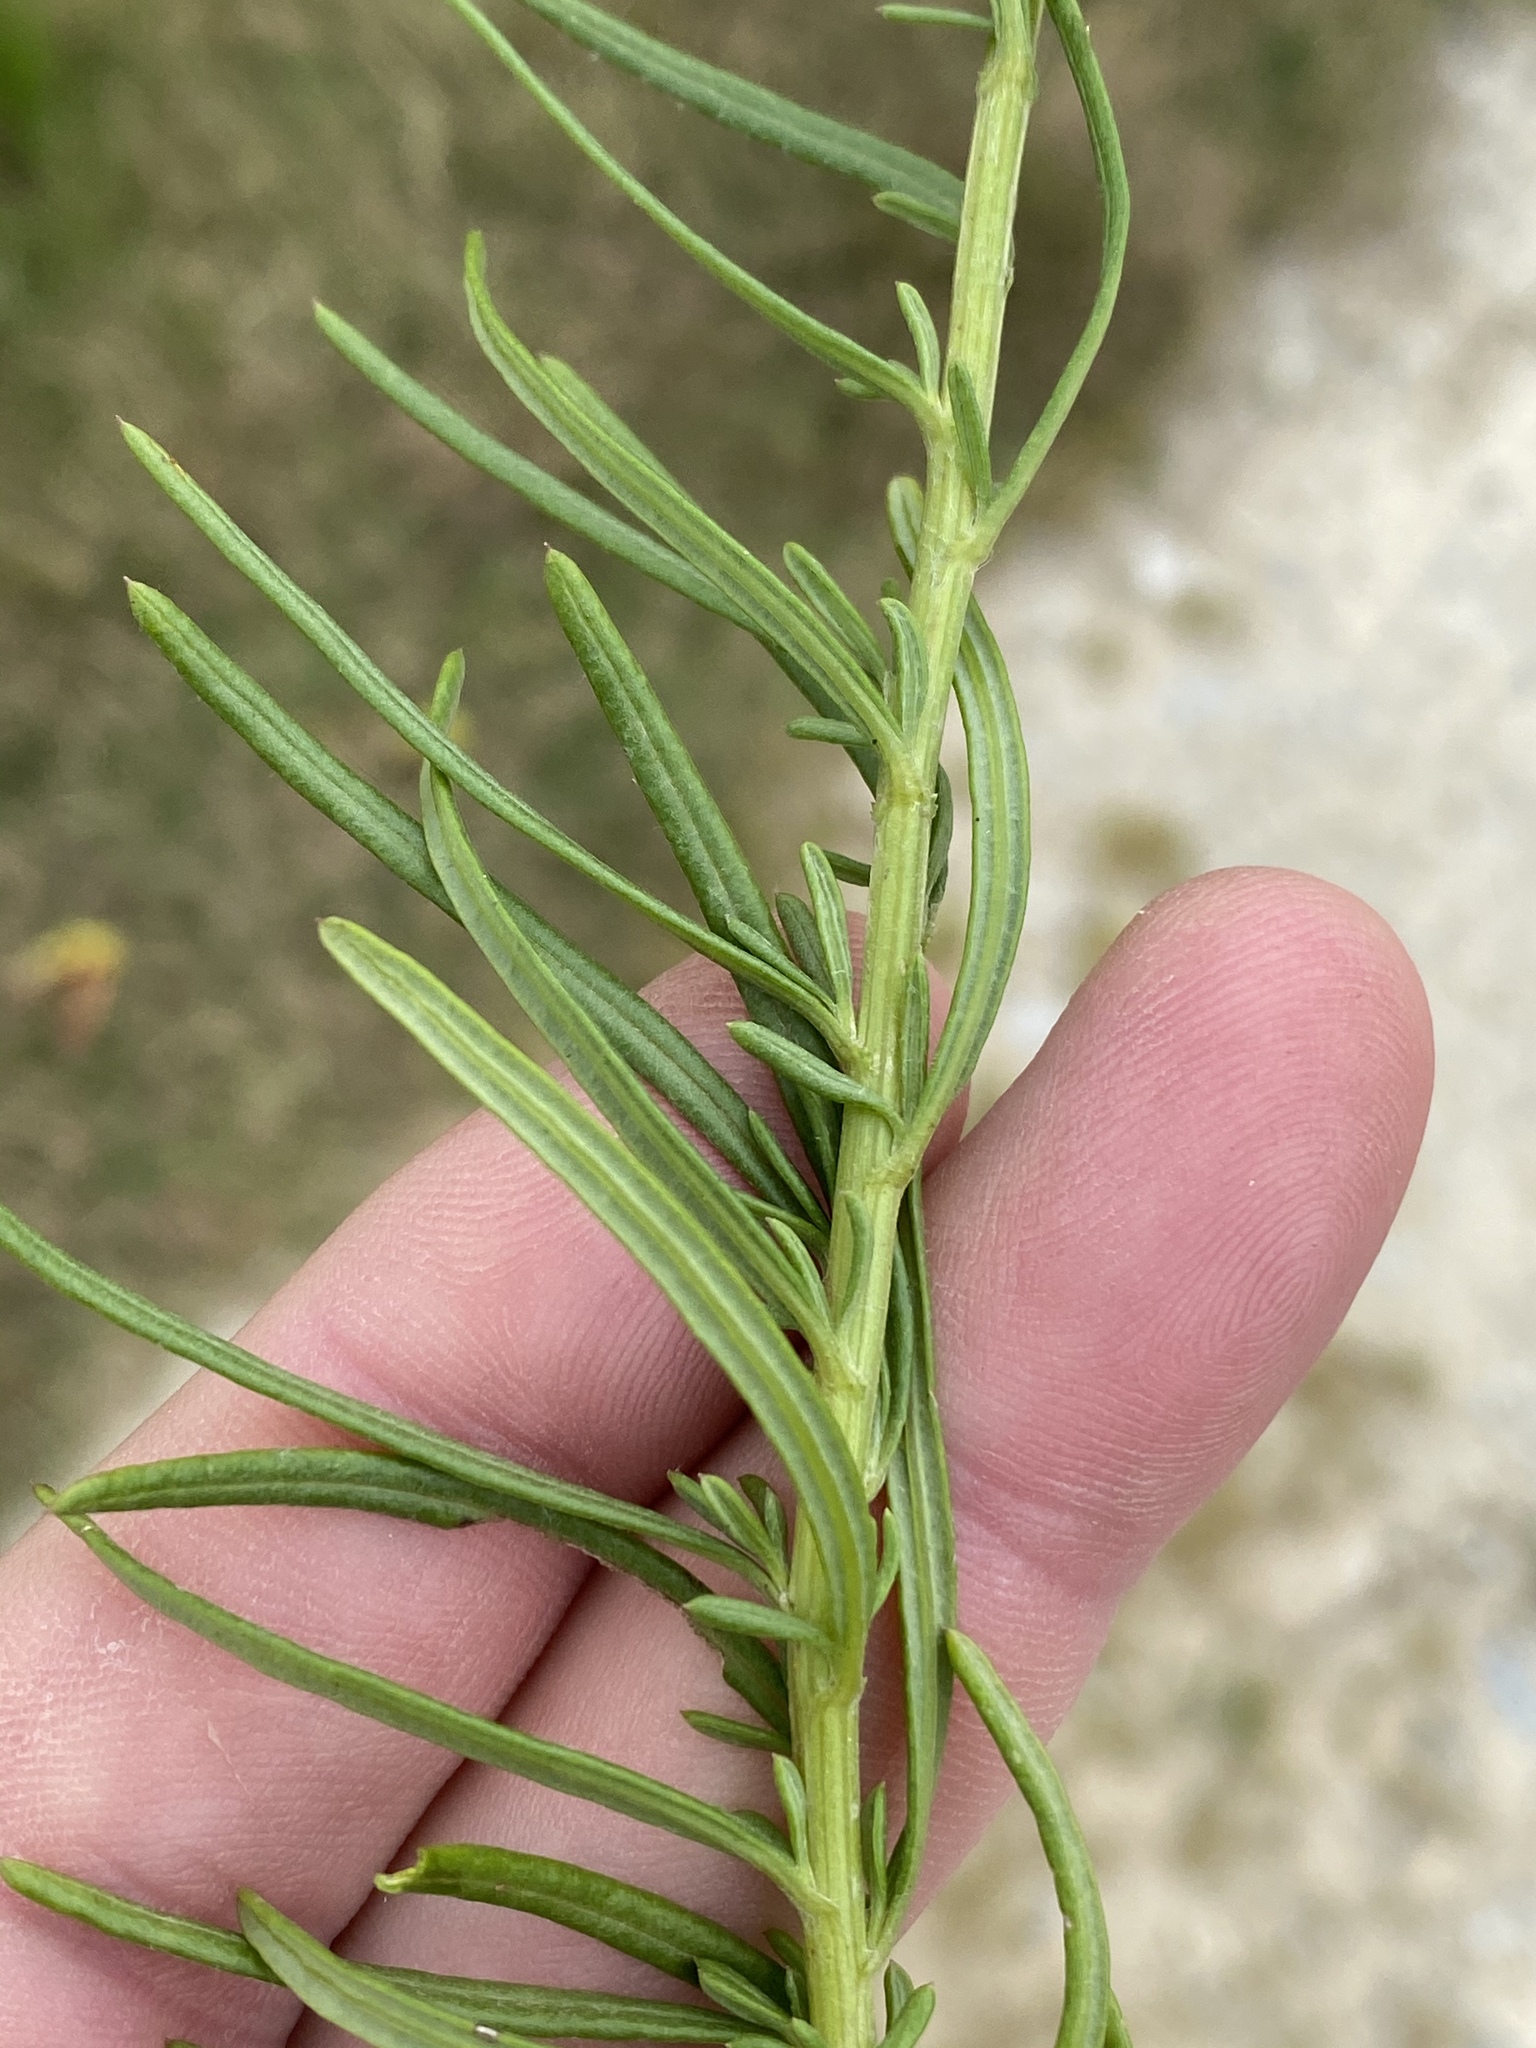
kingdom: Plantae
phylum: Tracheophyta
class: Magnoliopsida
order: Asterales
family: Asteraceae
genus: Senecio
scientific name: Senecio burchellii
